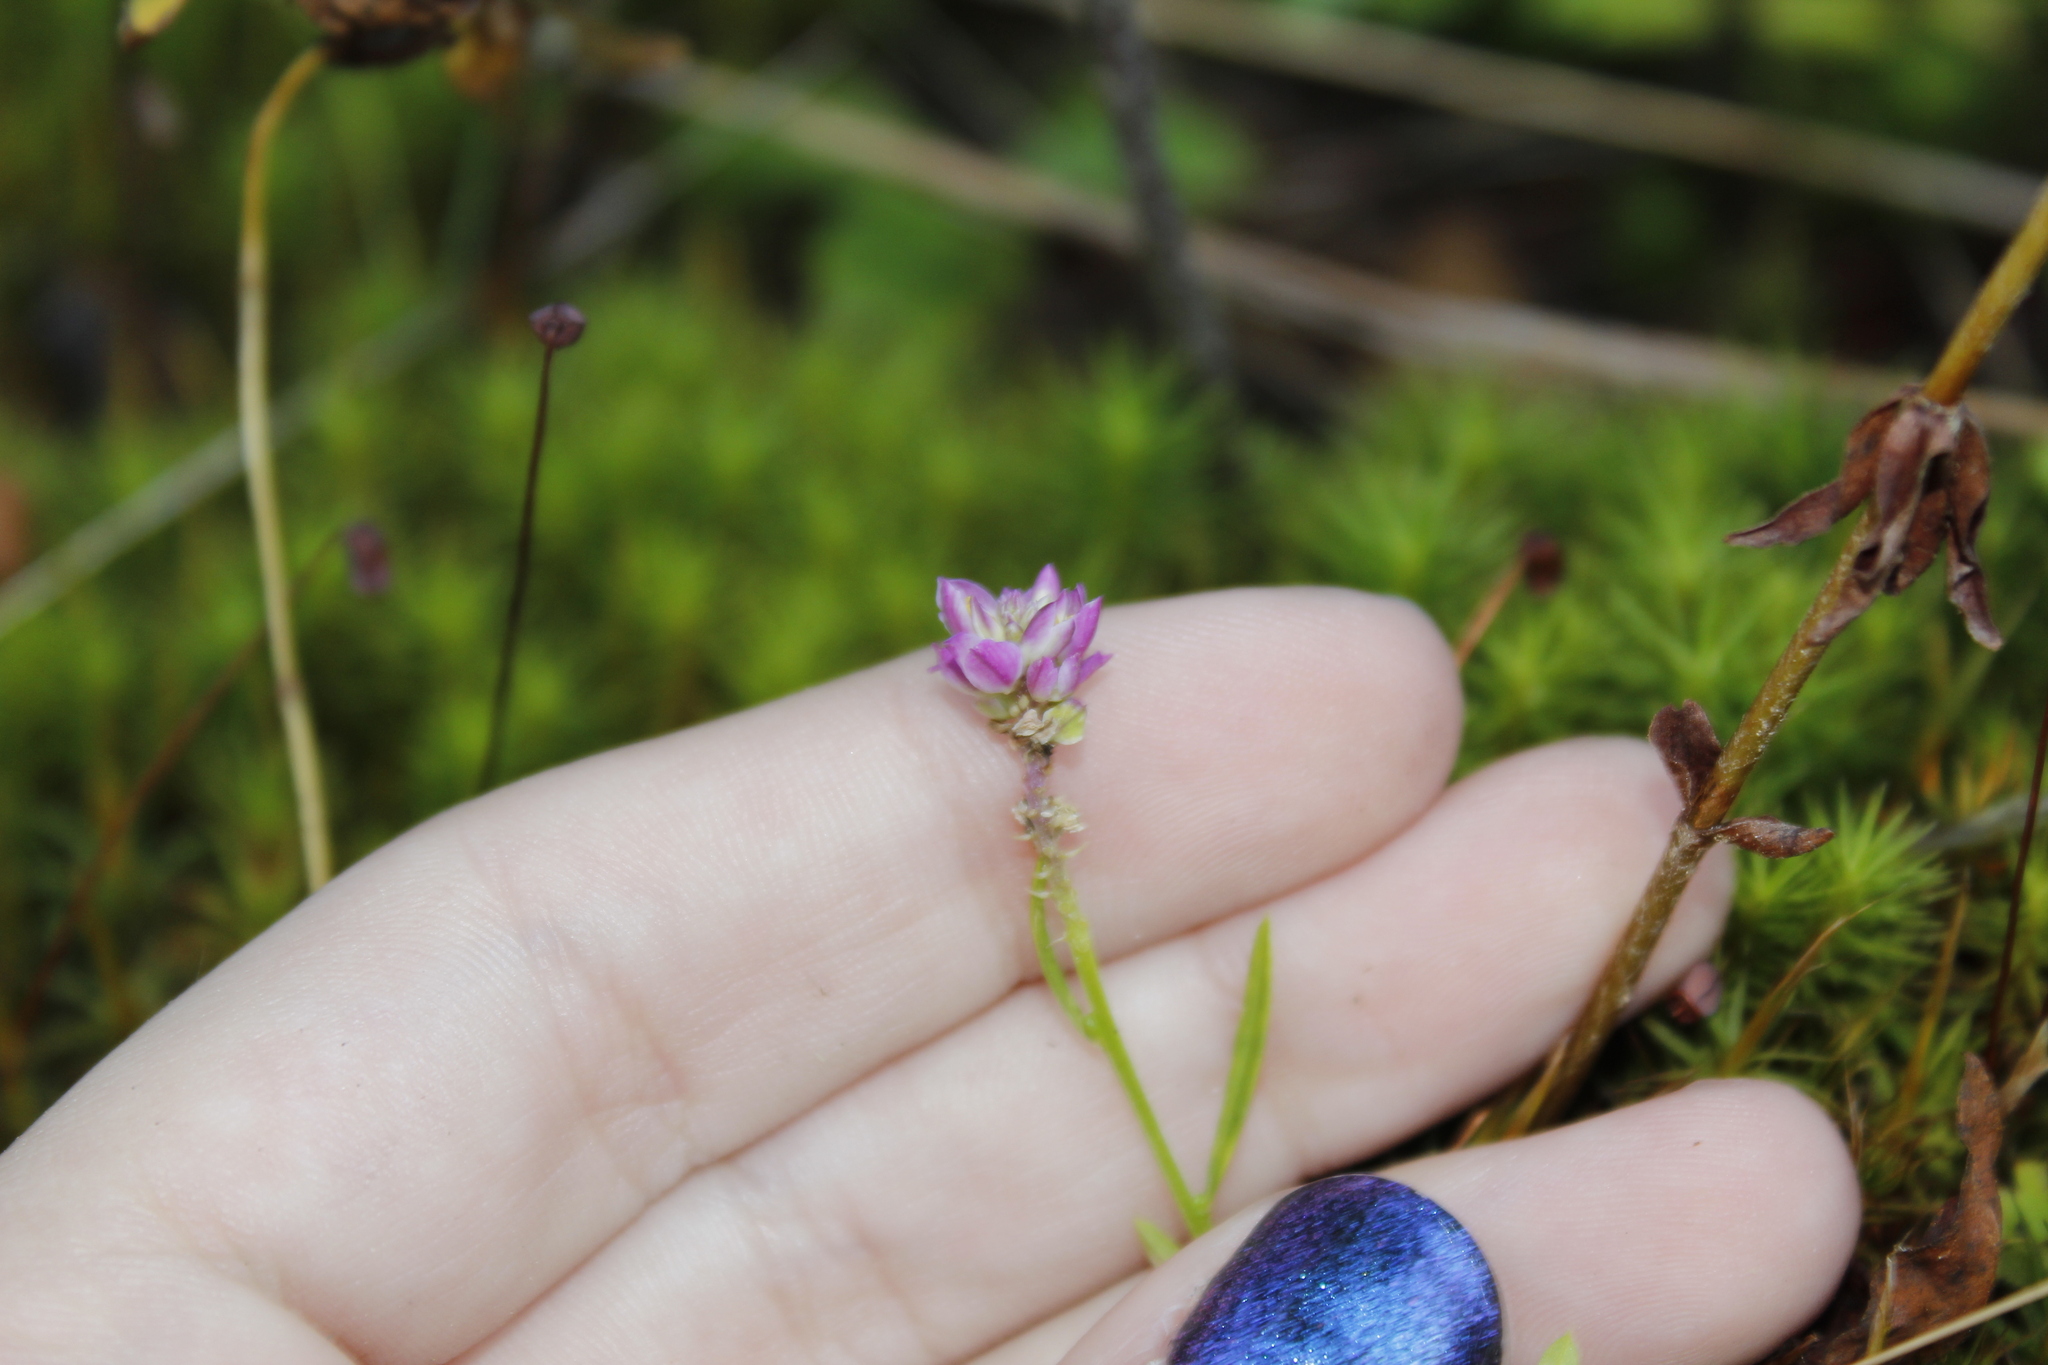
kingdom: Plantae
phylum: Tracheophyta
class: Magnoliopsida
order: Fabales
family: Polygalaceae
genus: Polygala
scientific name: Polygala sanguinea
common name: Blood milkwort
